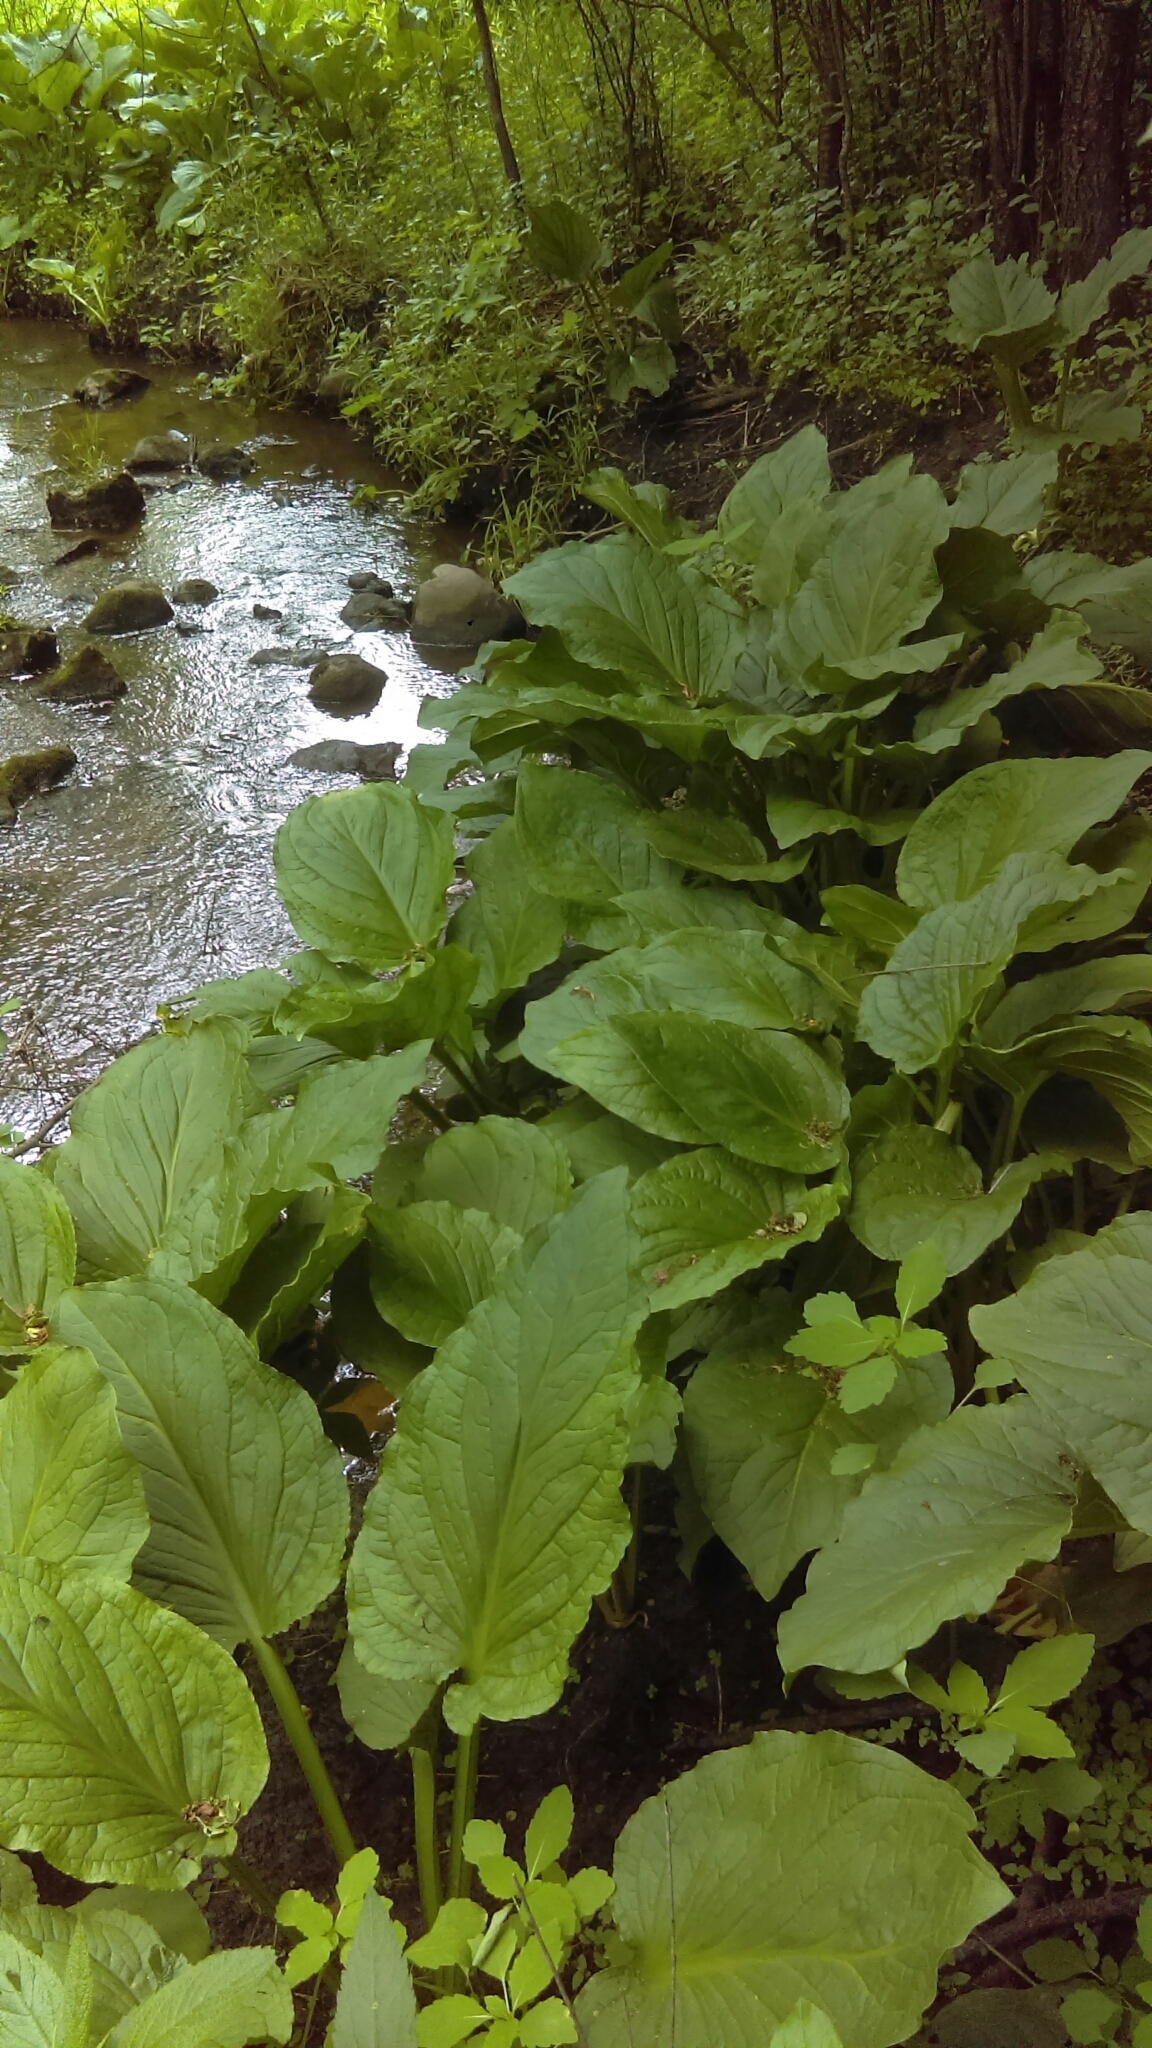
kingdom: Plantae
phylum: Tracheophyta
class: Liliopsida
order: Alismatales
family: Araceae
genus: Symplocarpus
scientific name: Symplocarpus foetidus
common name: Eastern skunk cabbage
